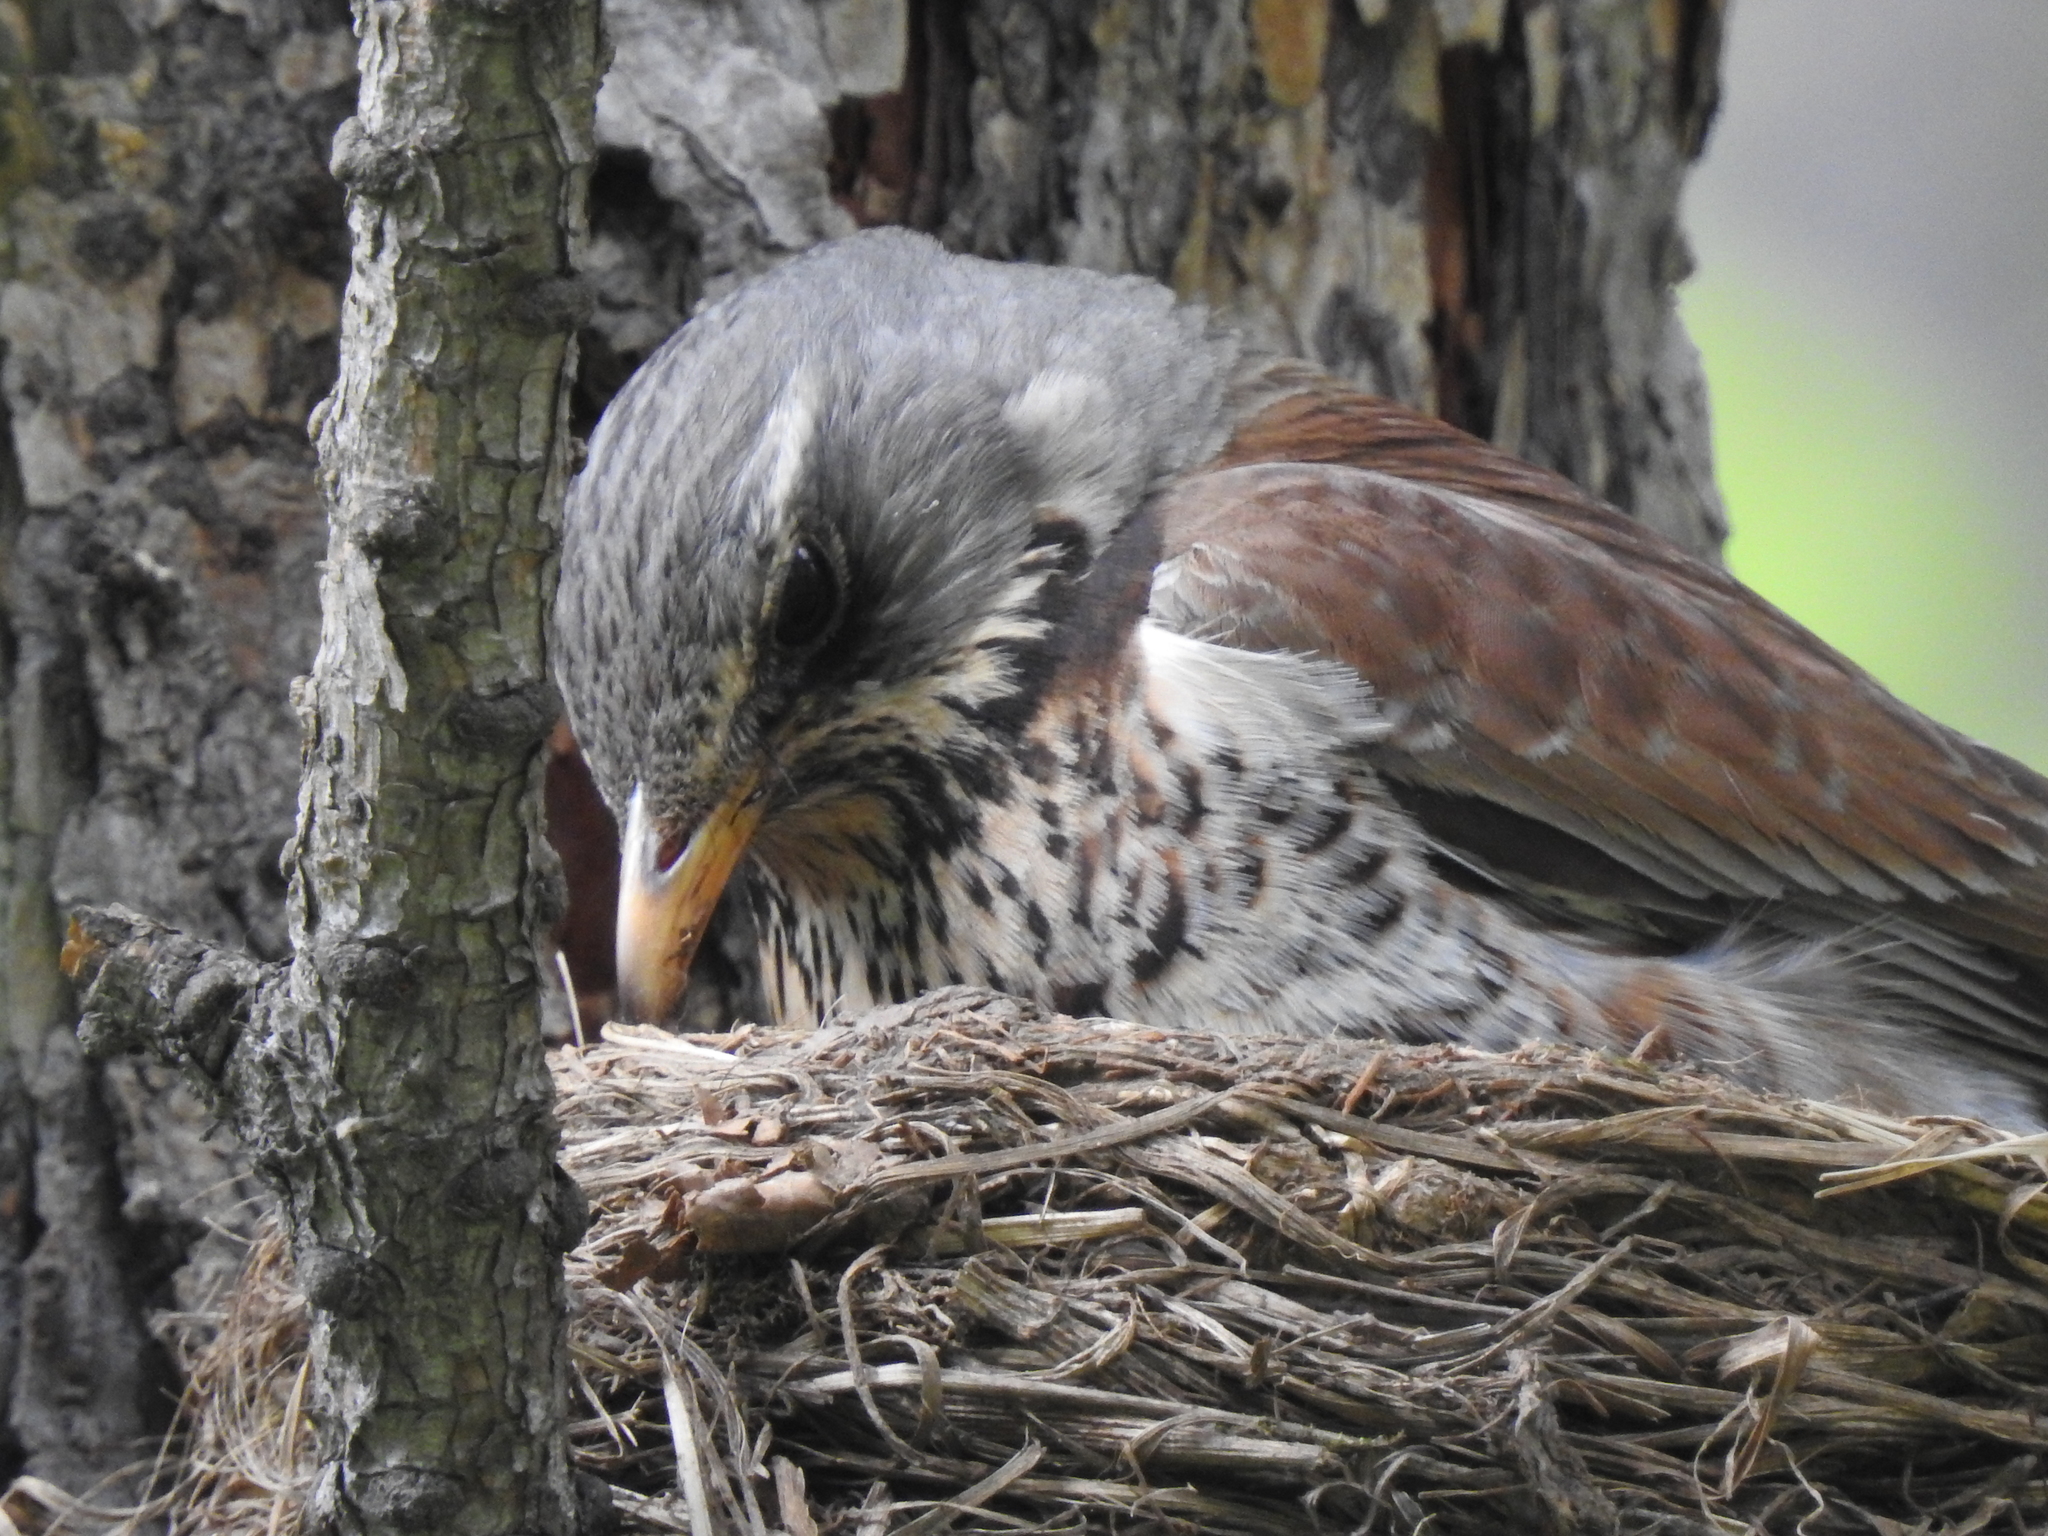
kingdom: Animalia
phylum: Chordata
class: Aves
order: Passeriformes
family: Turdidae
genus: Turdus
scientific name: Turdus pilaris
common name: Fieldfare
